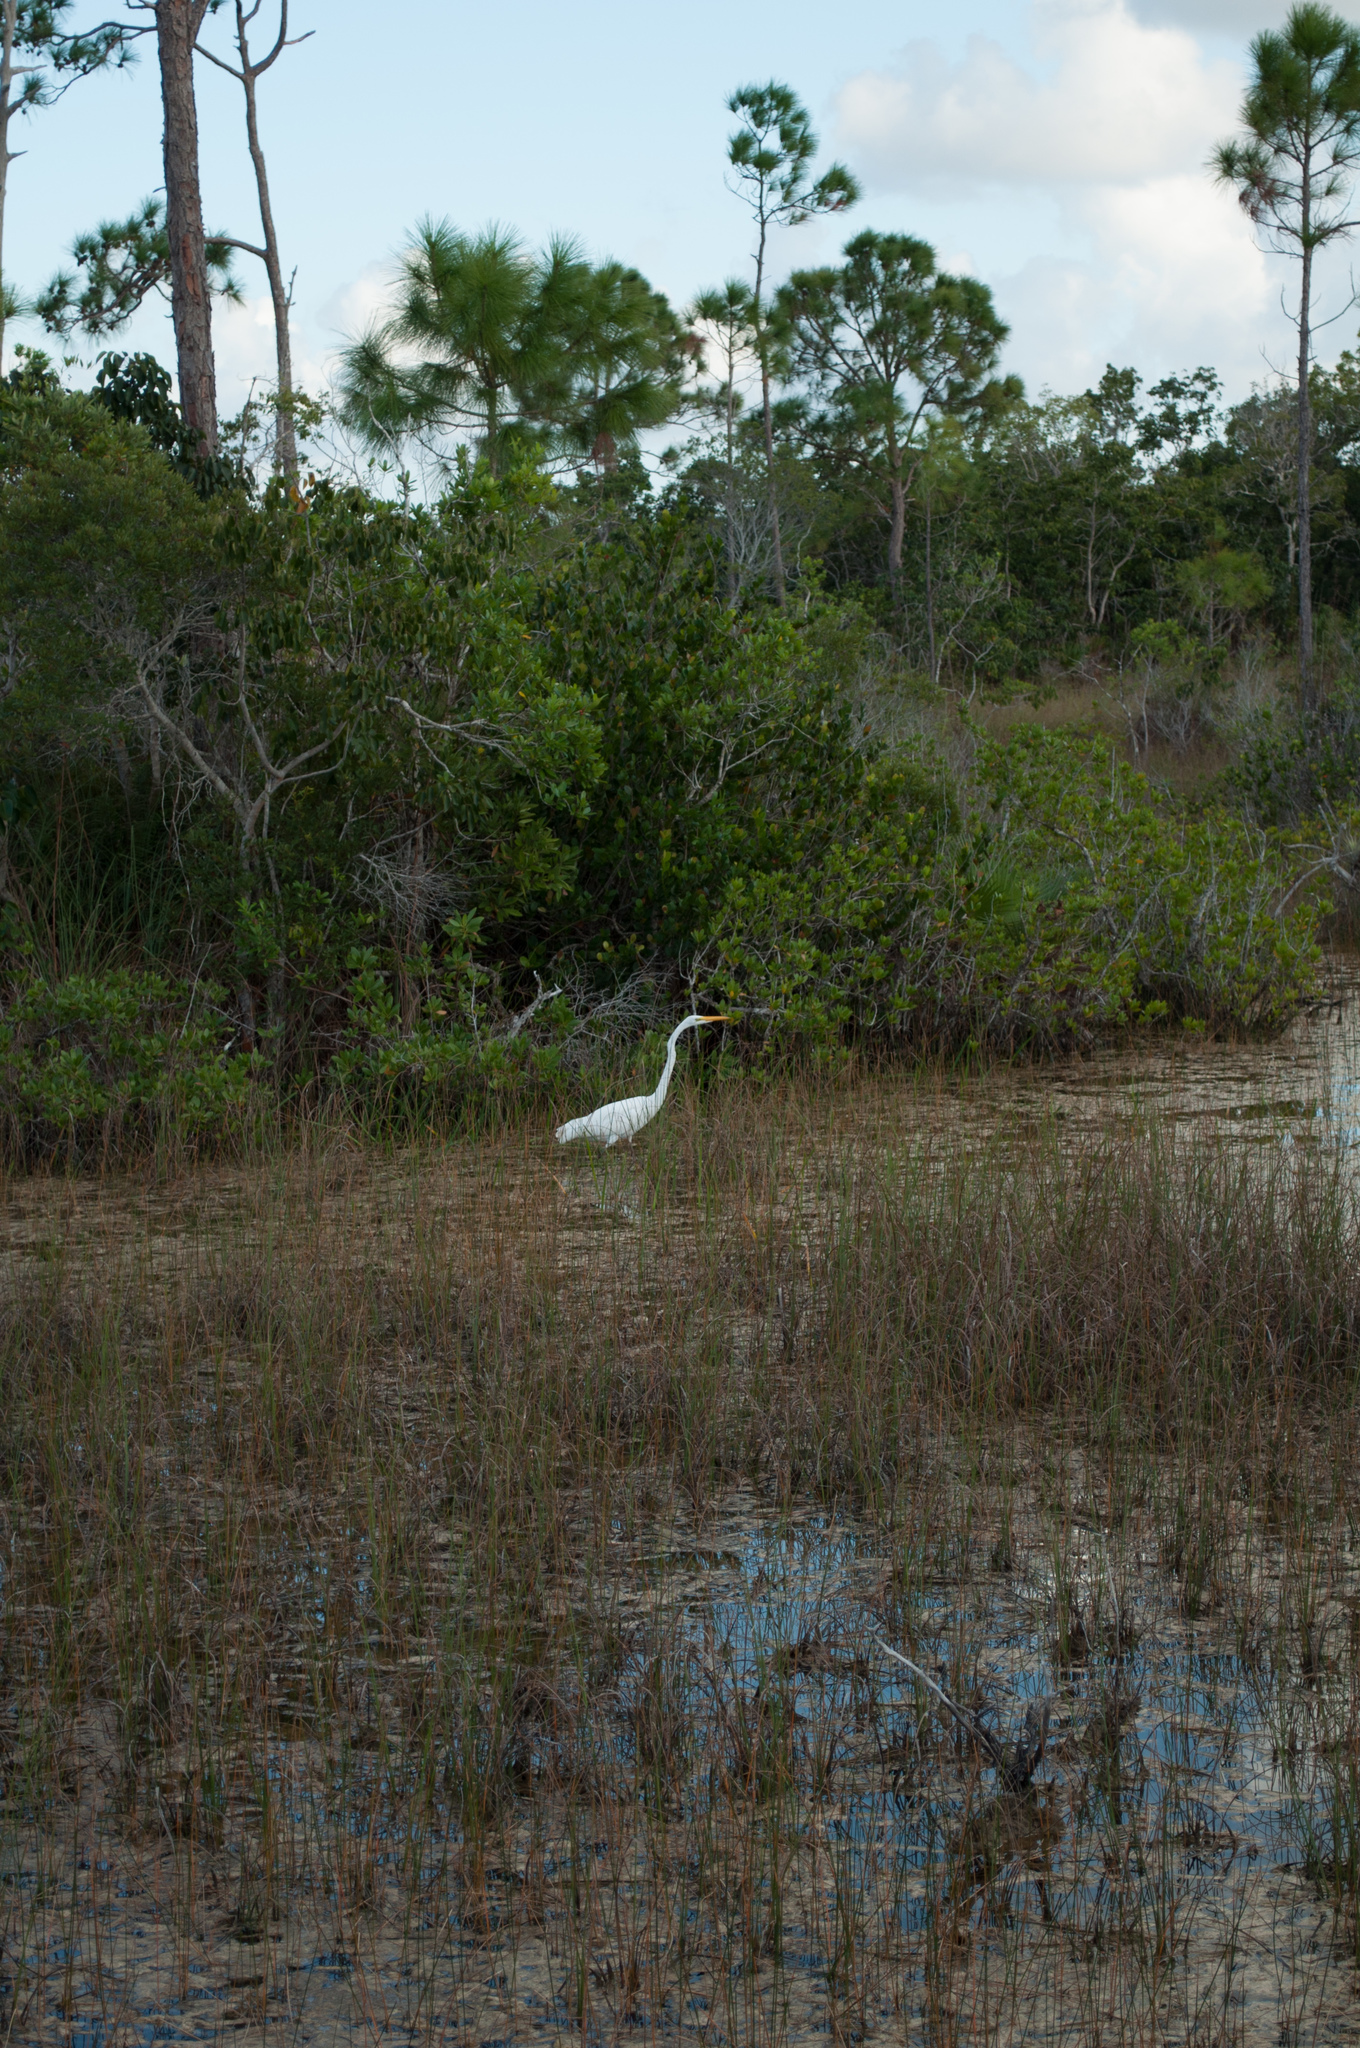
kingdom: Animalia
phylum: Chordata
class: Aves
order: Pelecaniformes
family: Ardeidae
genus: Ardea
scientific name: Ardea alba
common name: Great egret
